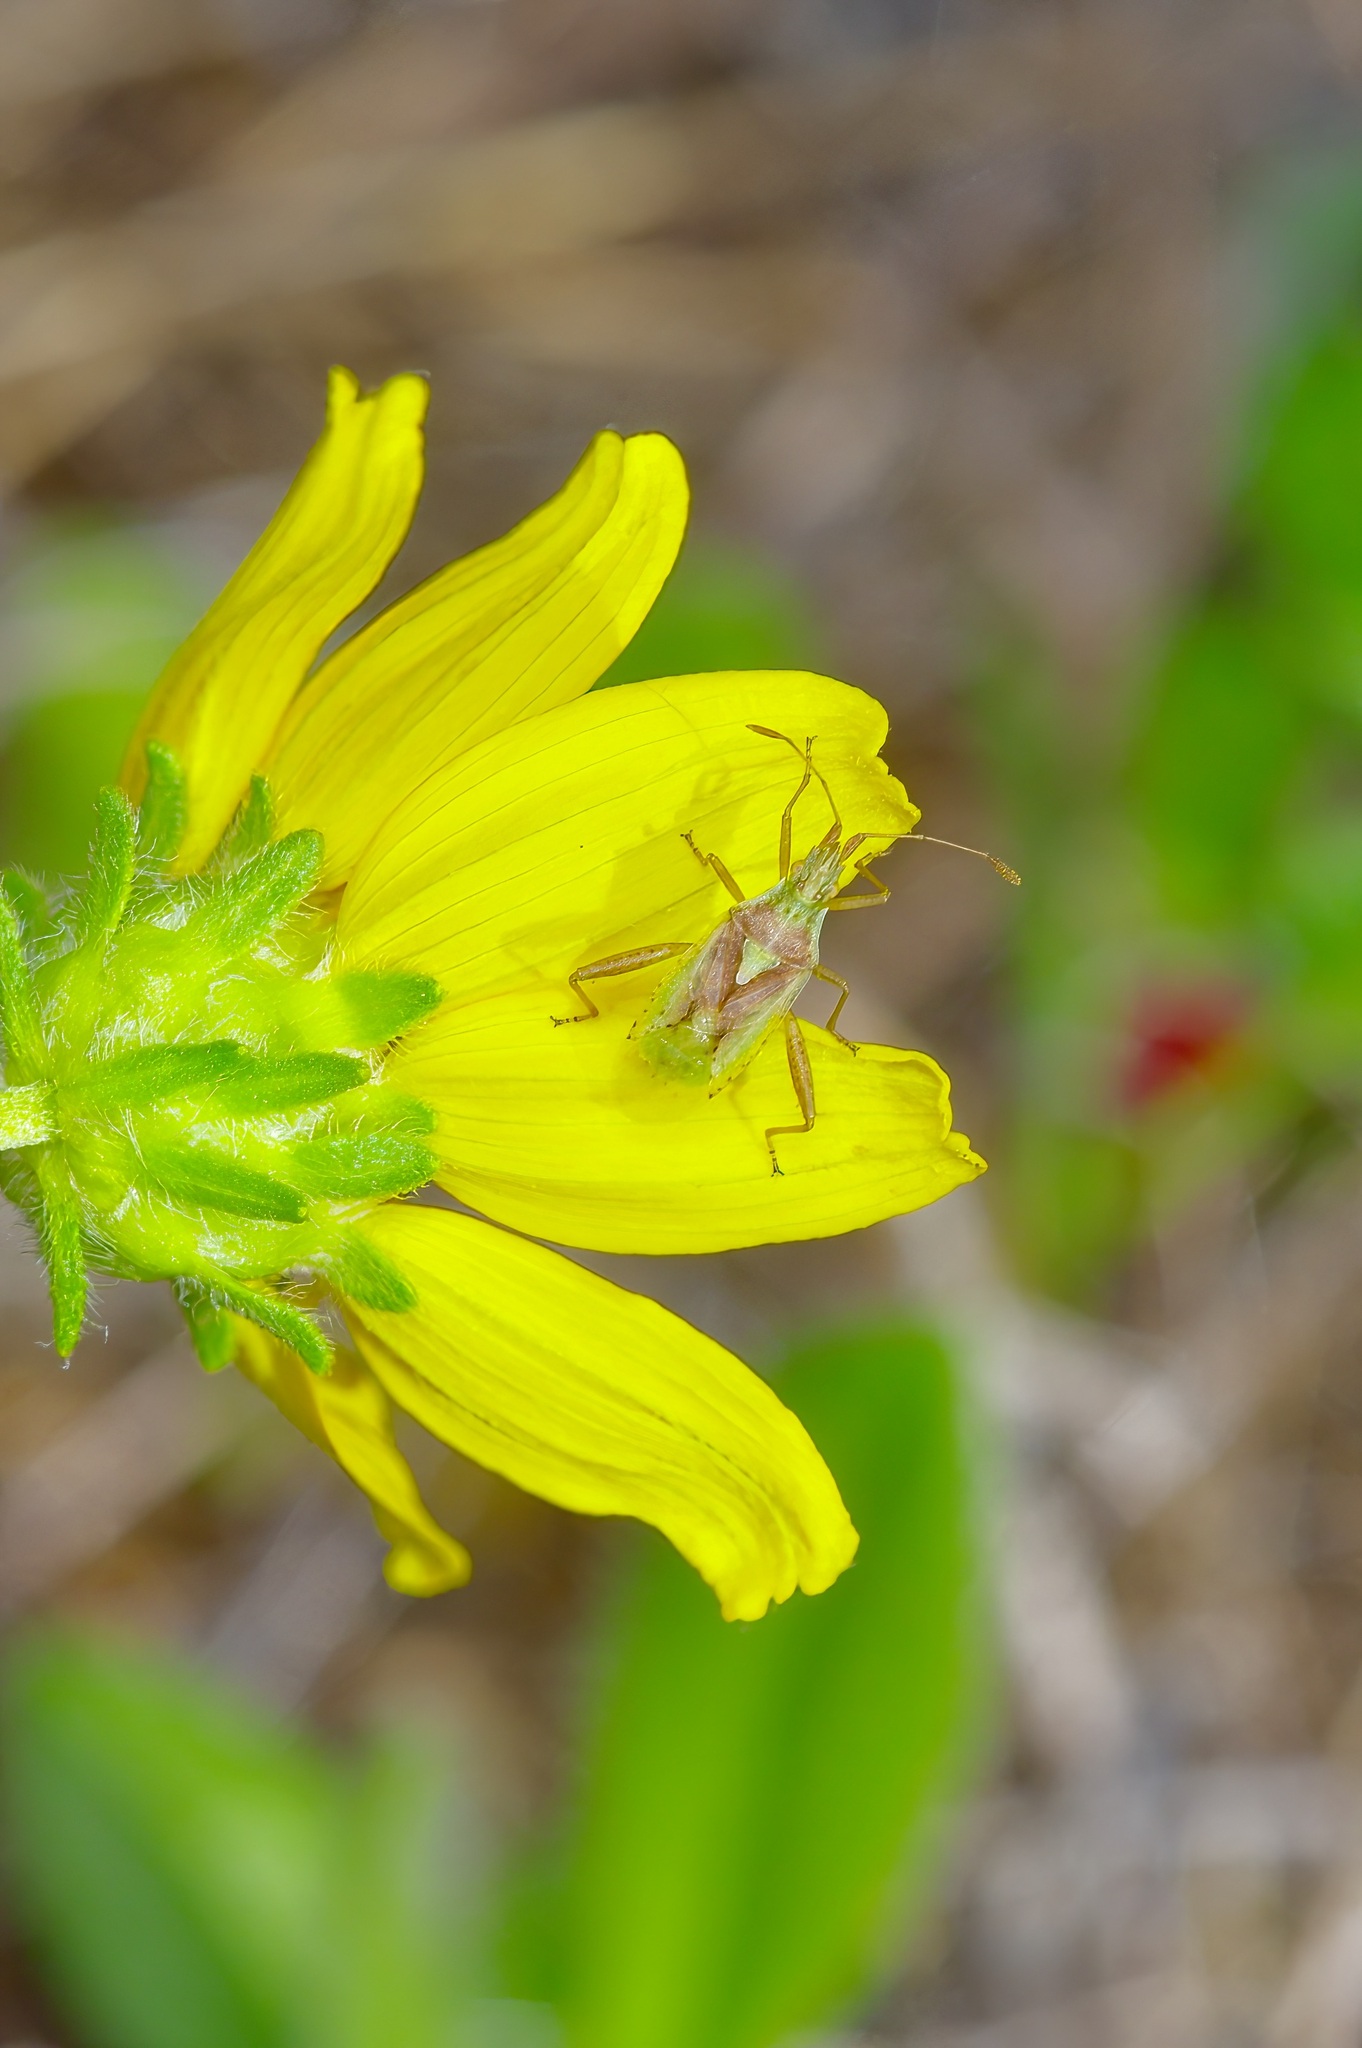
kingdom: Animalia
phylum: Arthropoda
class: Insecta
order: Hemiptera
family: Rhopalidae
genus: Harmostes
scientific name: Harmostes reflexulus
